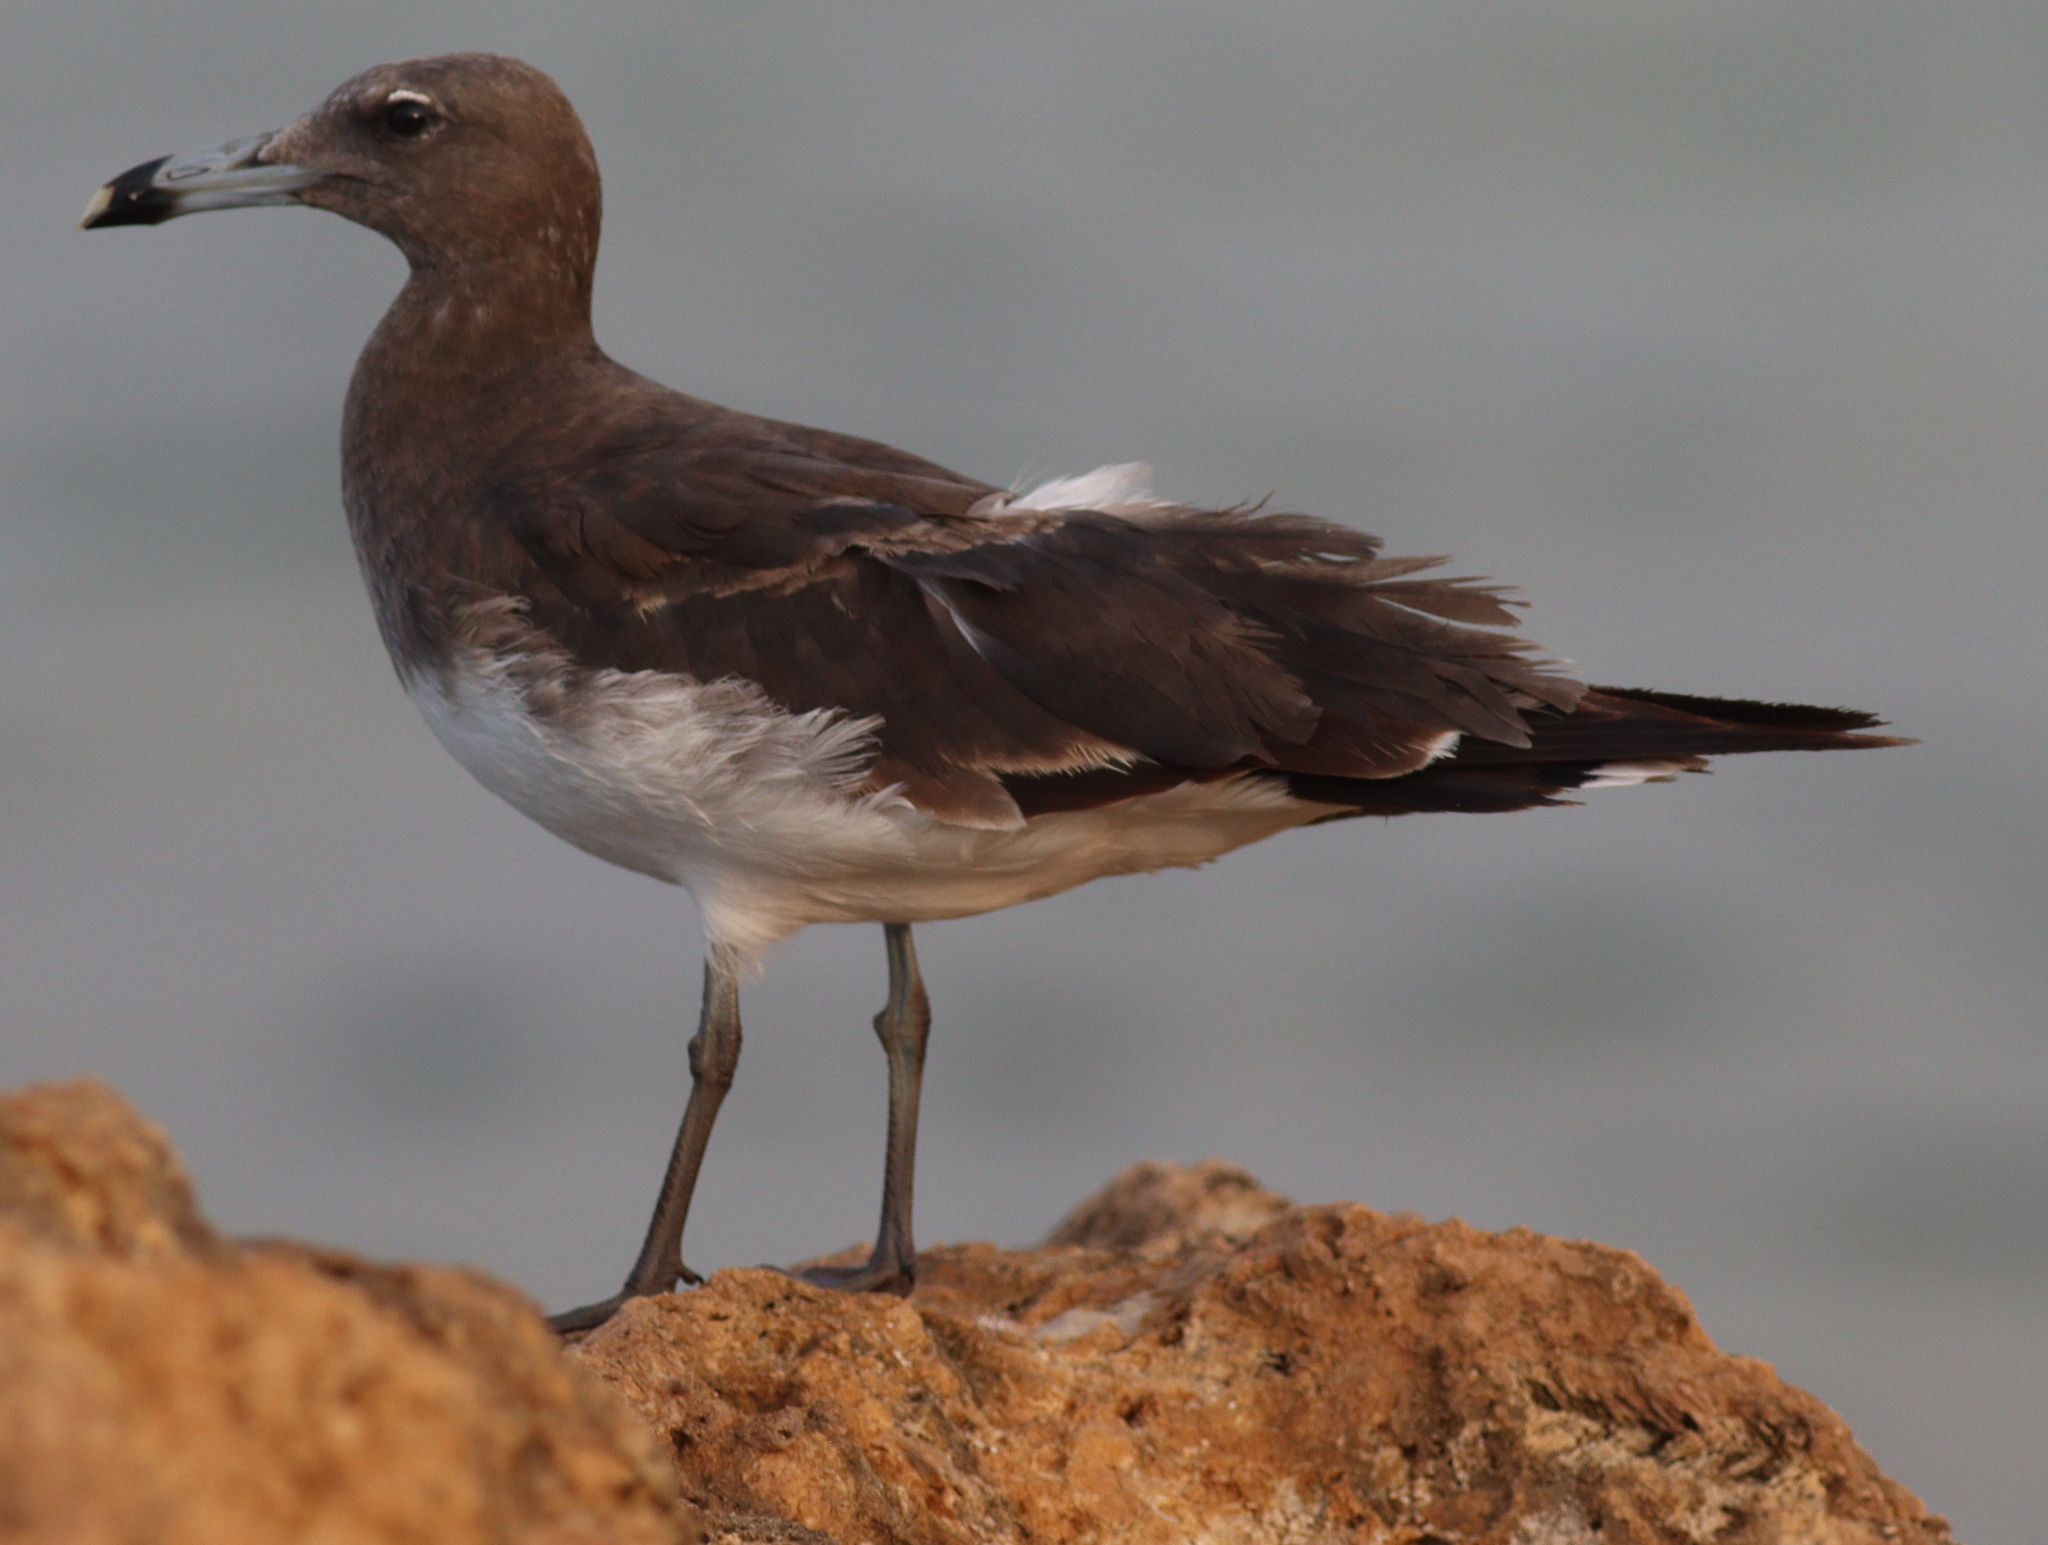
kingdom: Animalia
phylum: Chordata
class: Aves
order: Charadriiformes
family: Laridae
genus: Ichthyaetus
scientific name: Ichthyaetus hemprichii
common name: Sooty gull
